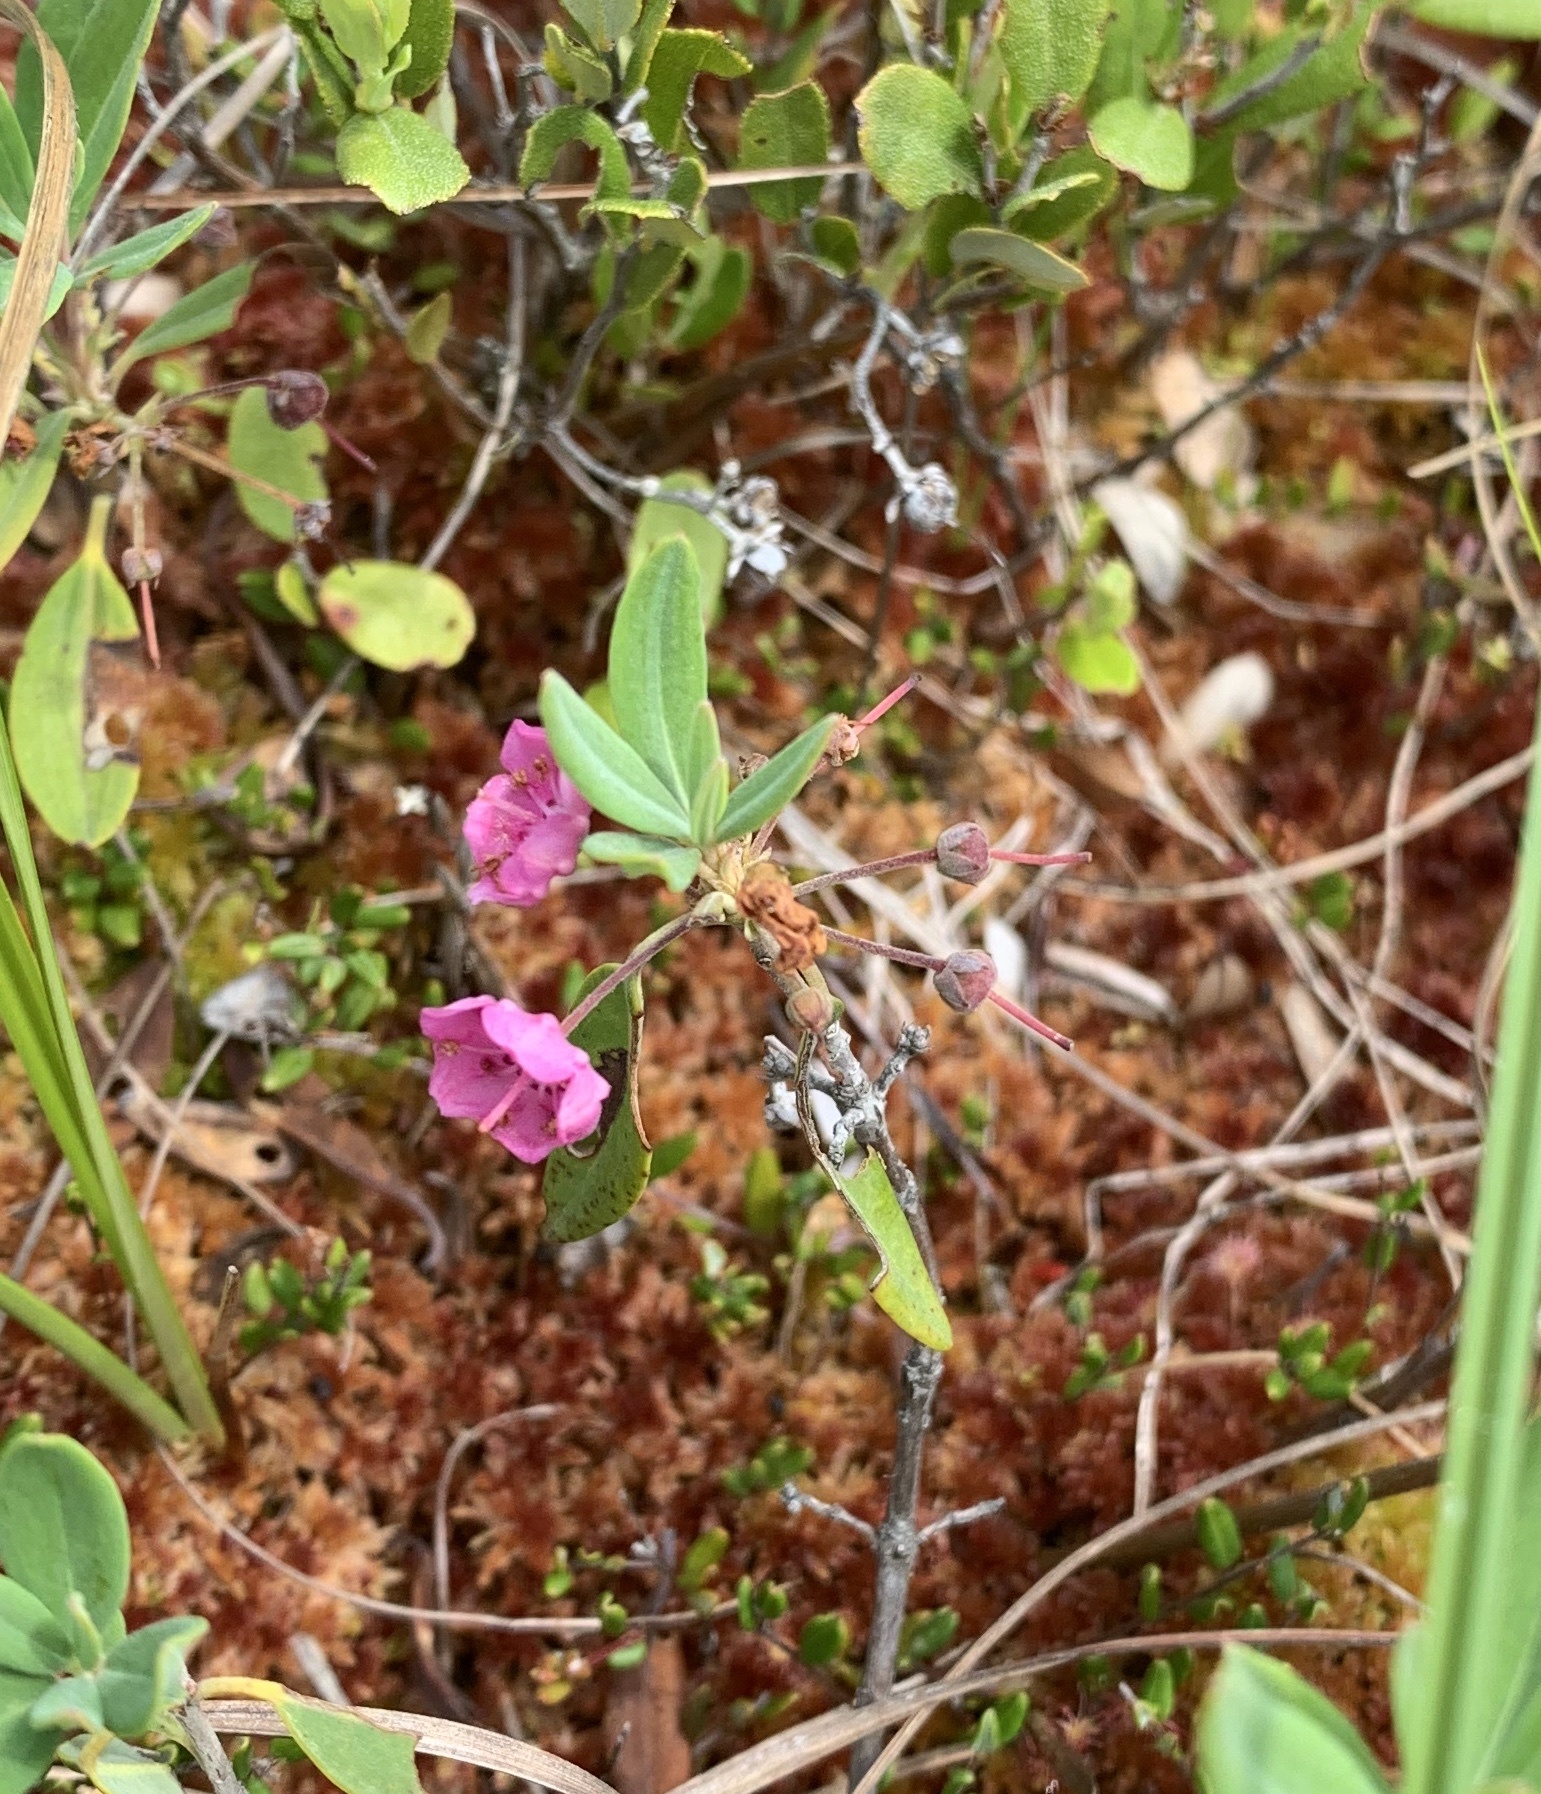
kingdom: Plantae
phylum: Tracheophyta
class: Magnoliopsida
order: Ericales
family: Ericaceae
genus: Kalmia
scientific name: Kalmia angustifolia
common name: Sheep-laurel
